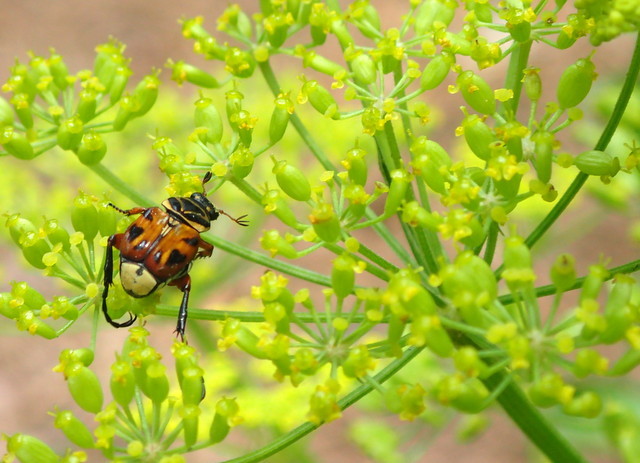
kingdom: Animalia
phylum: Arthropoda
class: Insecta
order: Coleoptera
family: Scarabaeidae
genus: Trigonopeltastes
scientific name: Trigonopeltastes delta
